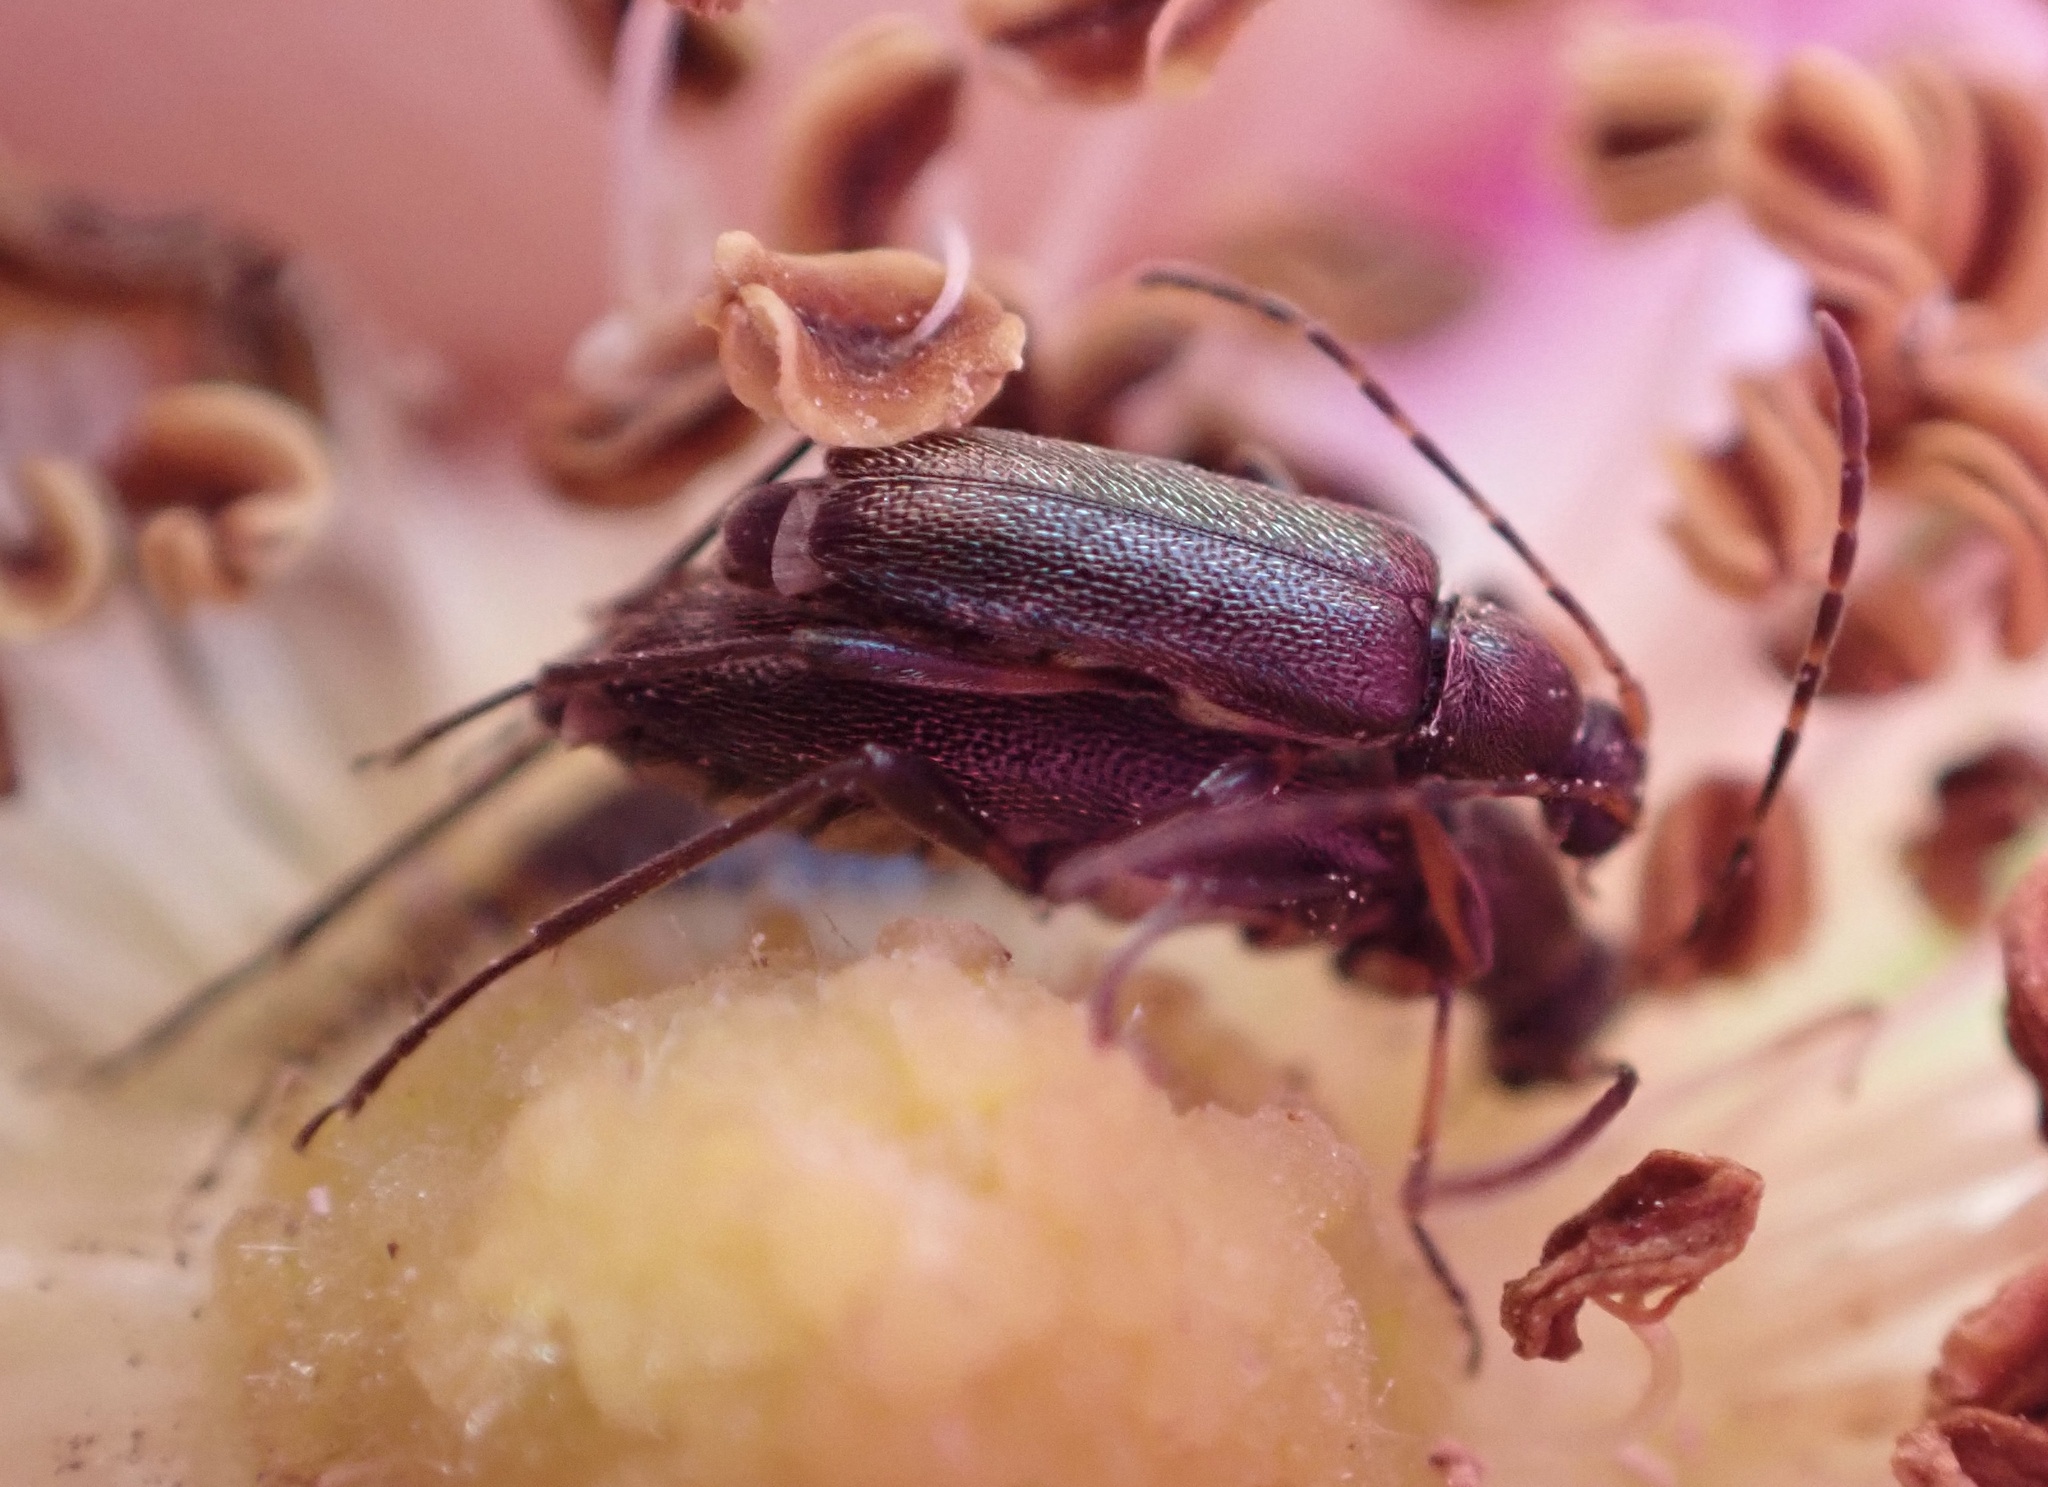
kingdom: Animalia
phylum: Arthropoda
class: Insecta
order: Coleoptera
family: Cerambycidae
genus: Grammoptera
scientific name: Grammoptera ruficornis
